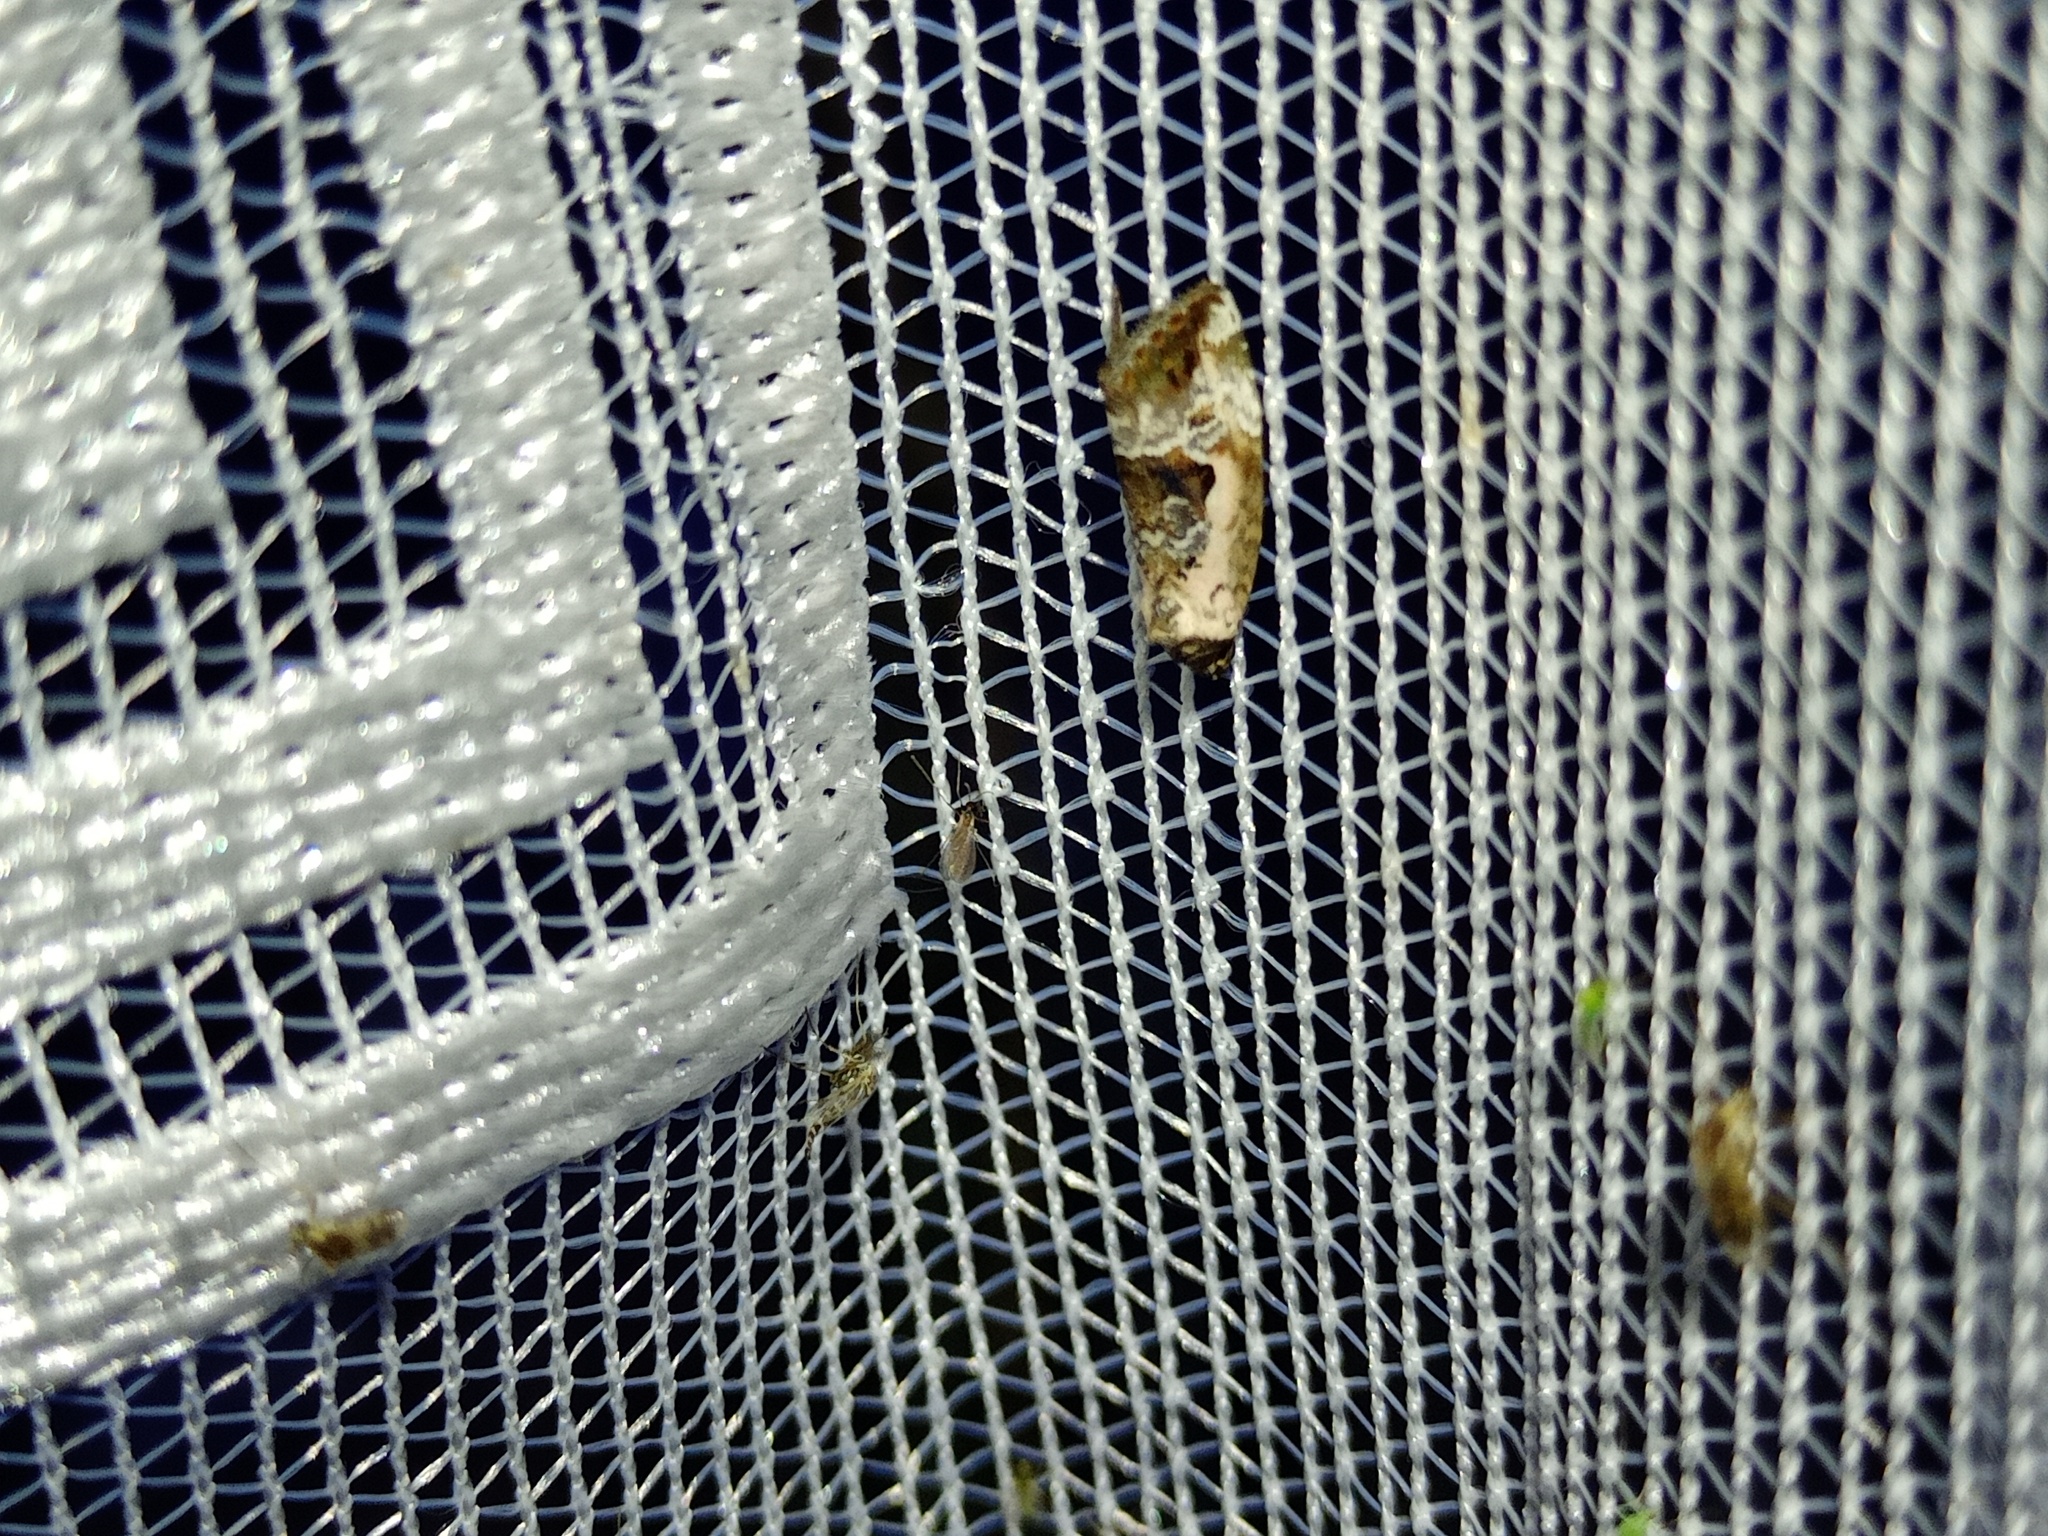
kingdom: Animalia
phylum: Arthropoda
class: Insecta
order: Lepidoptera
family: Noctuidae
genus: Elaphria
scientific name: Elaphria venustula
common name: Rosy marbled
